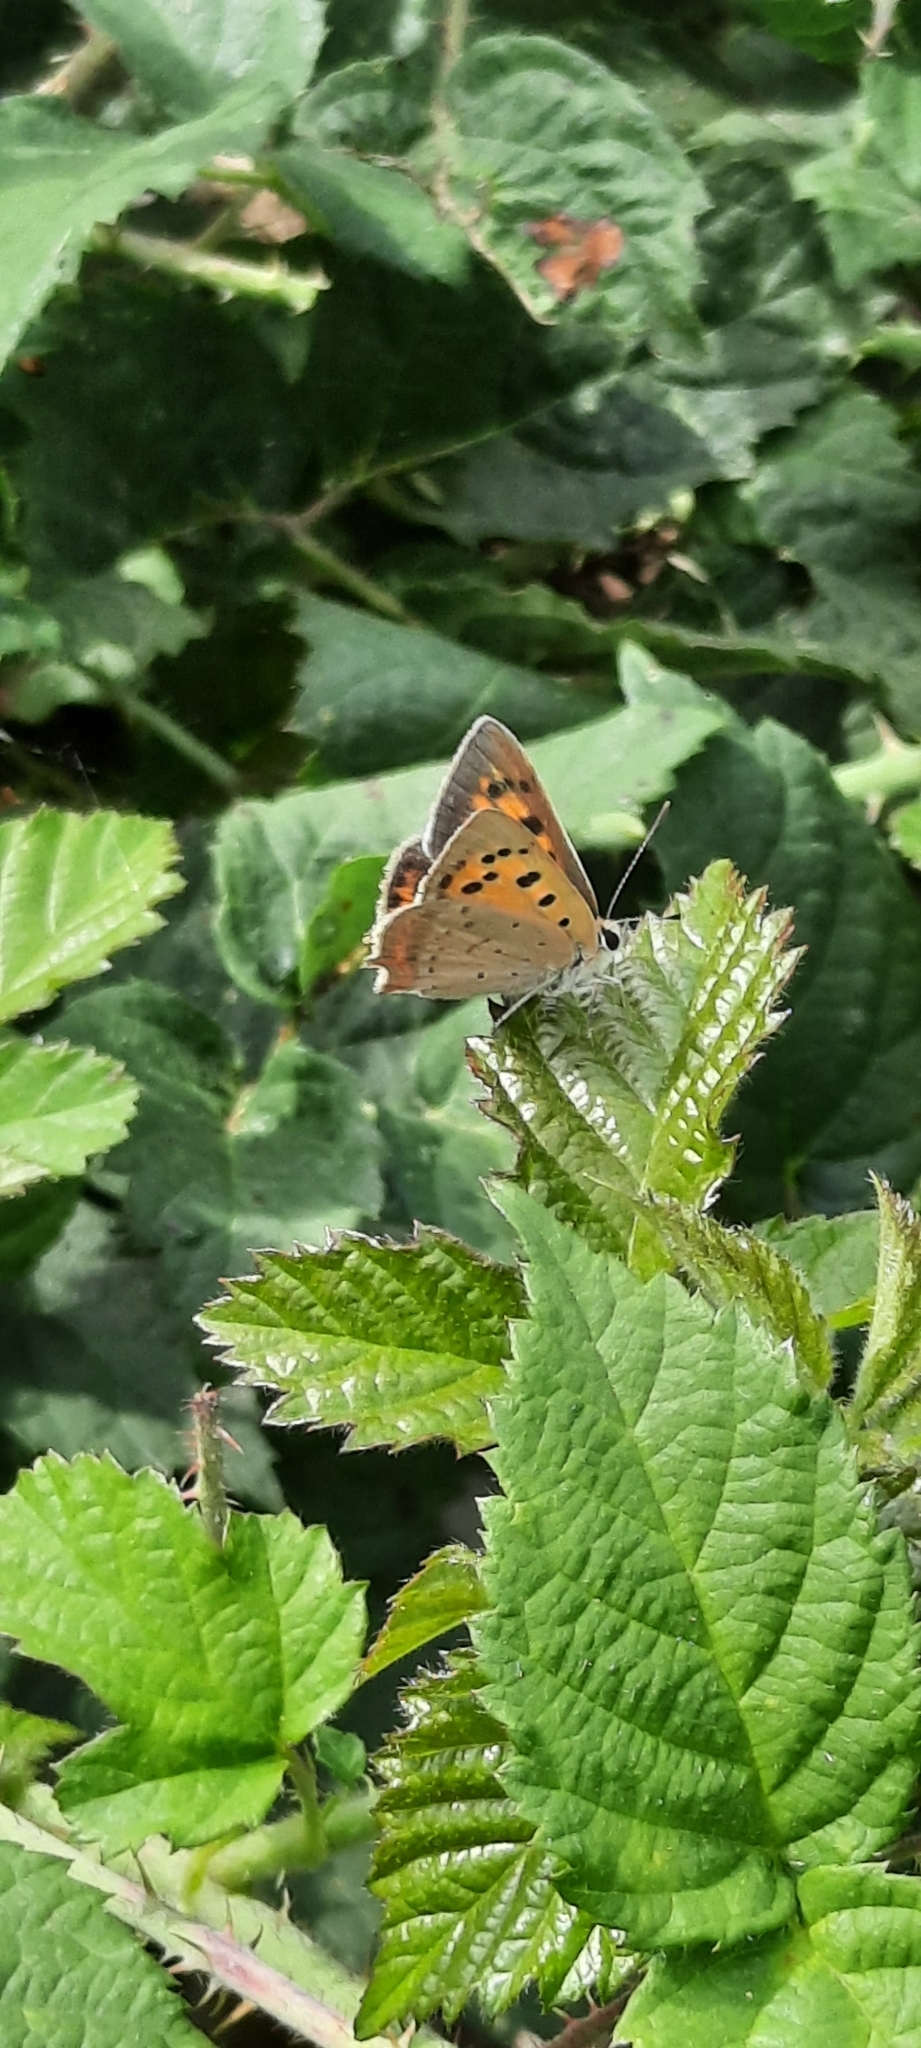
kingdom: Animalia
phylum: Arthropoda
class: Insecta
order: Lepidoptera
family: Lycaenidae
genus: Lycaena
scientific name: Lycaena phlaeas
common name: Small copper
